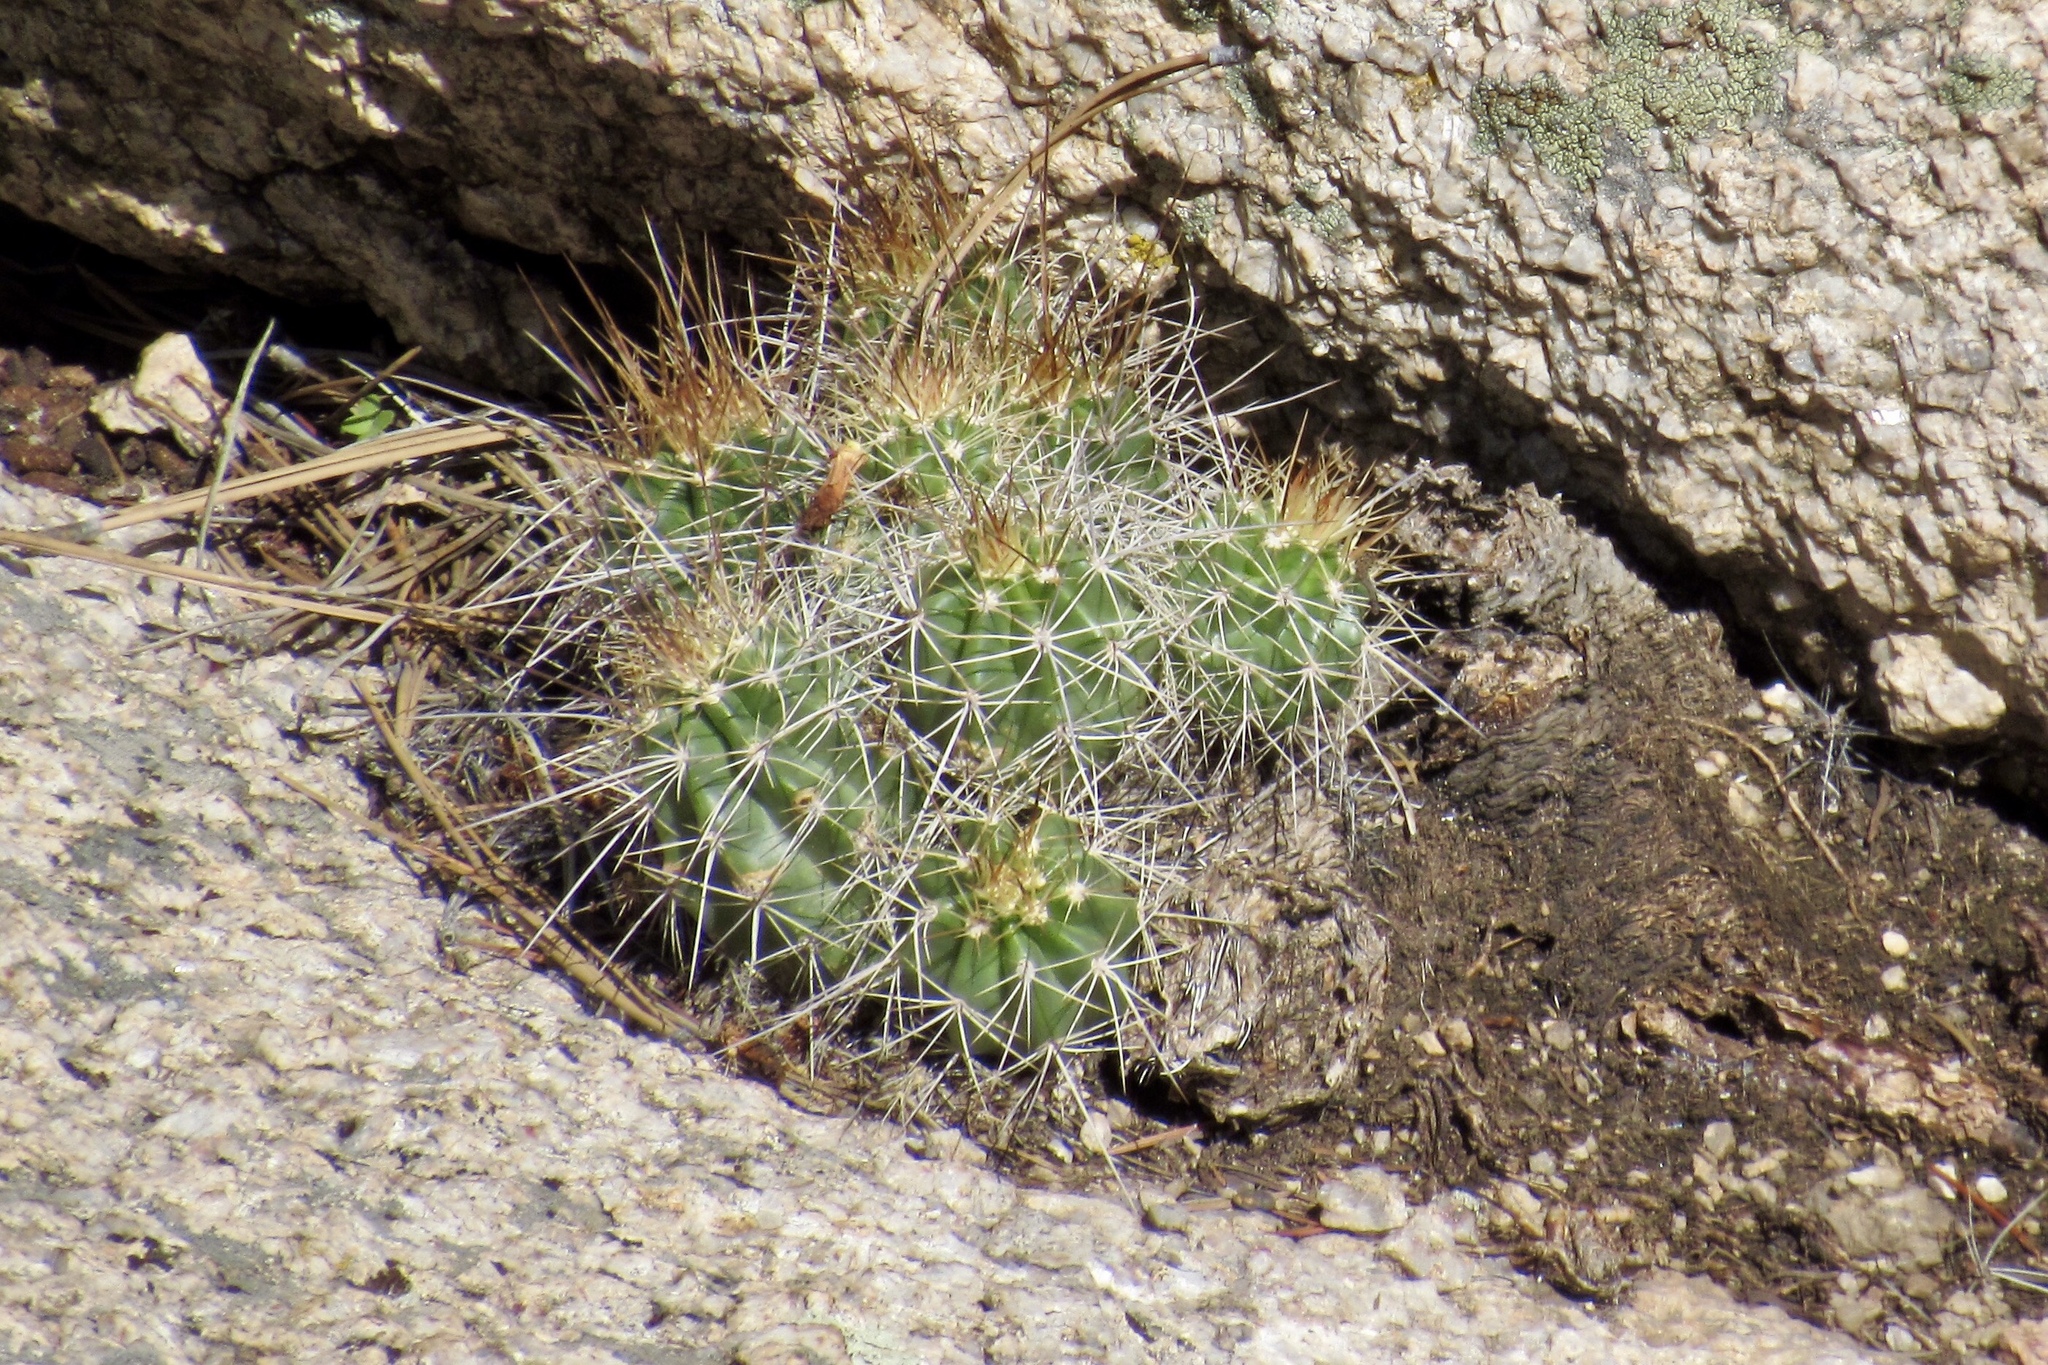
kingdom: Plantae
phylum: Tracheophyta
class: Magnoliopsida
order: Caryophyllales
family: Cactaceae
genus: Echinocereus
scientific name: Echinocereus bakeri
